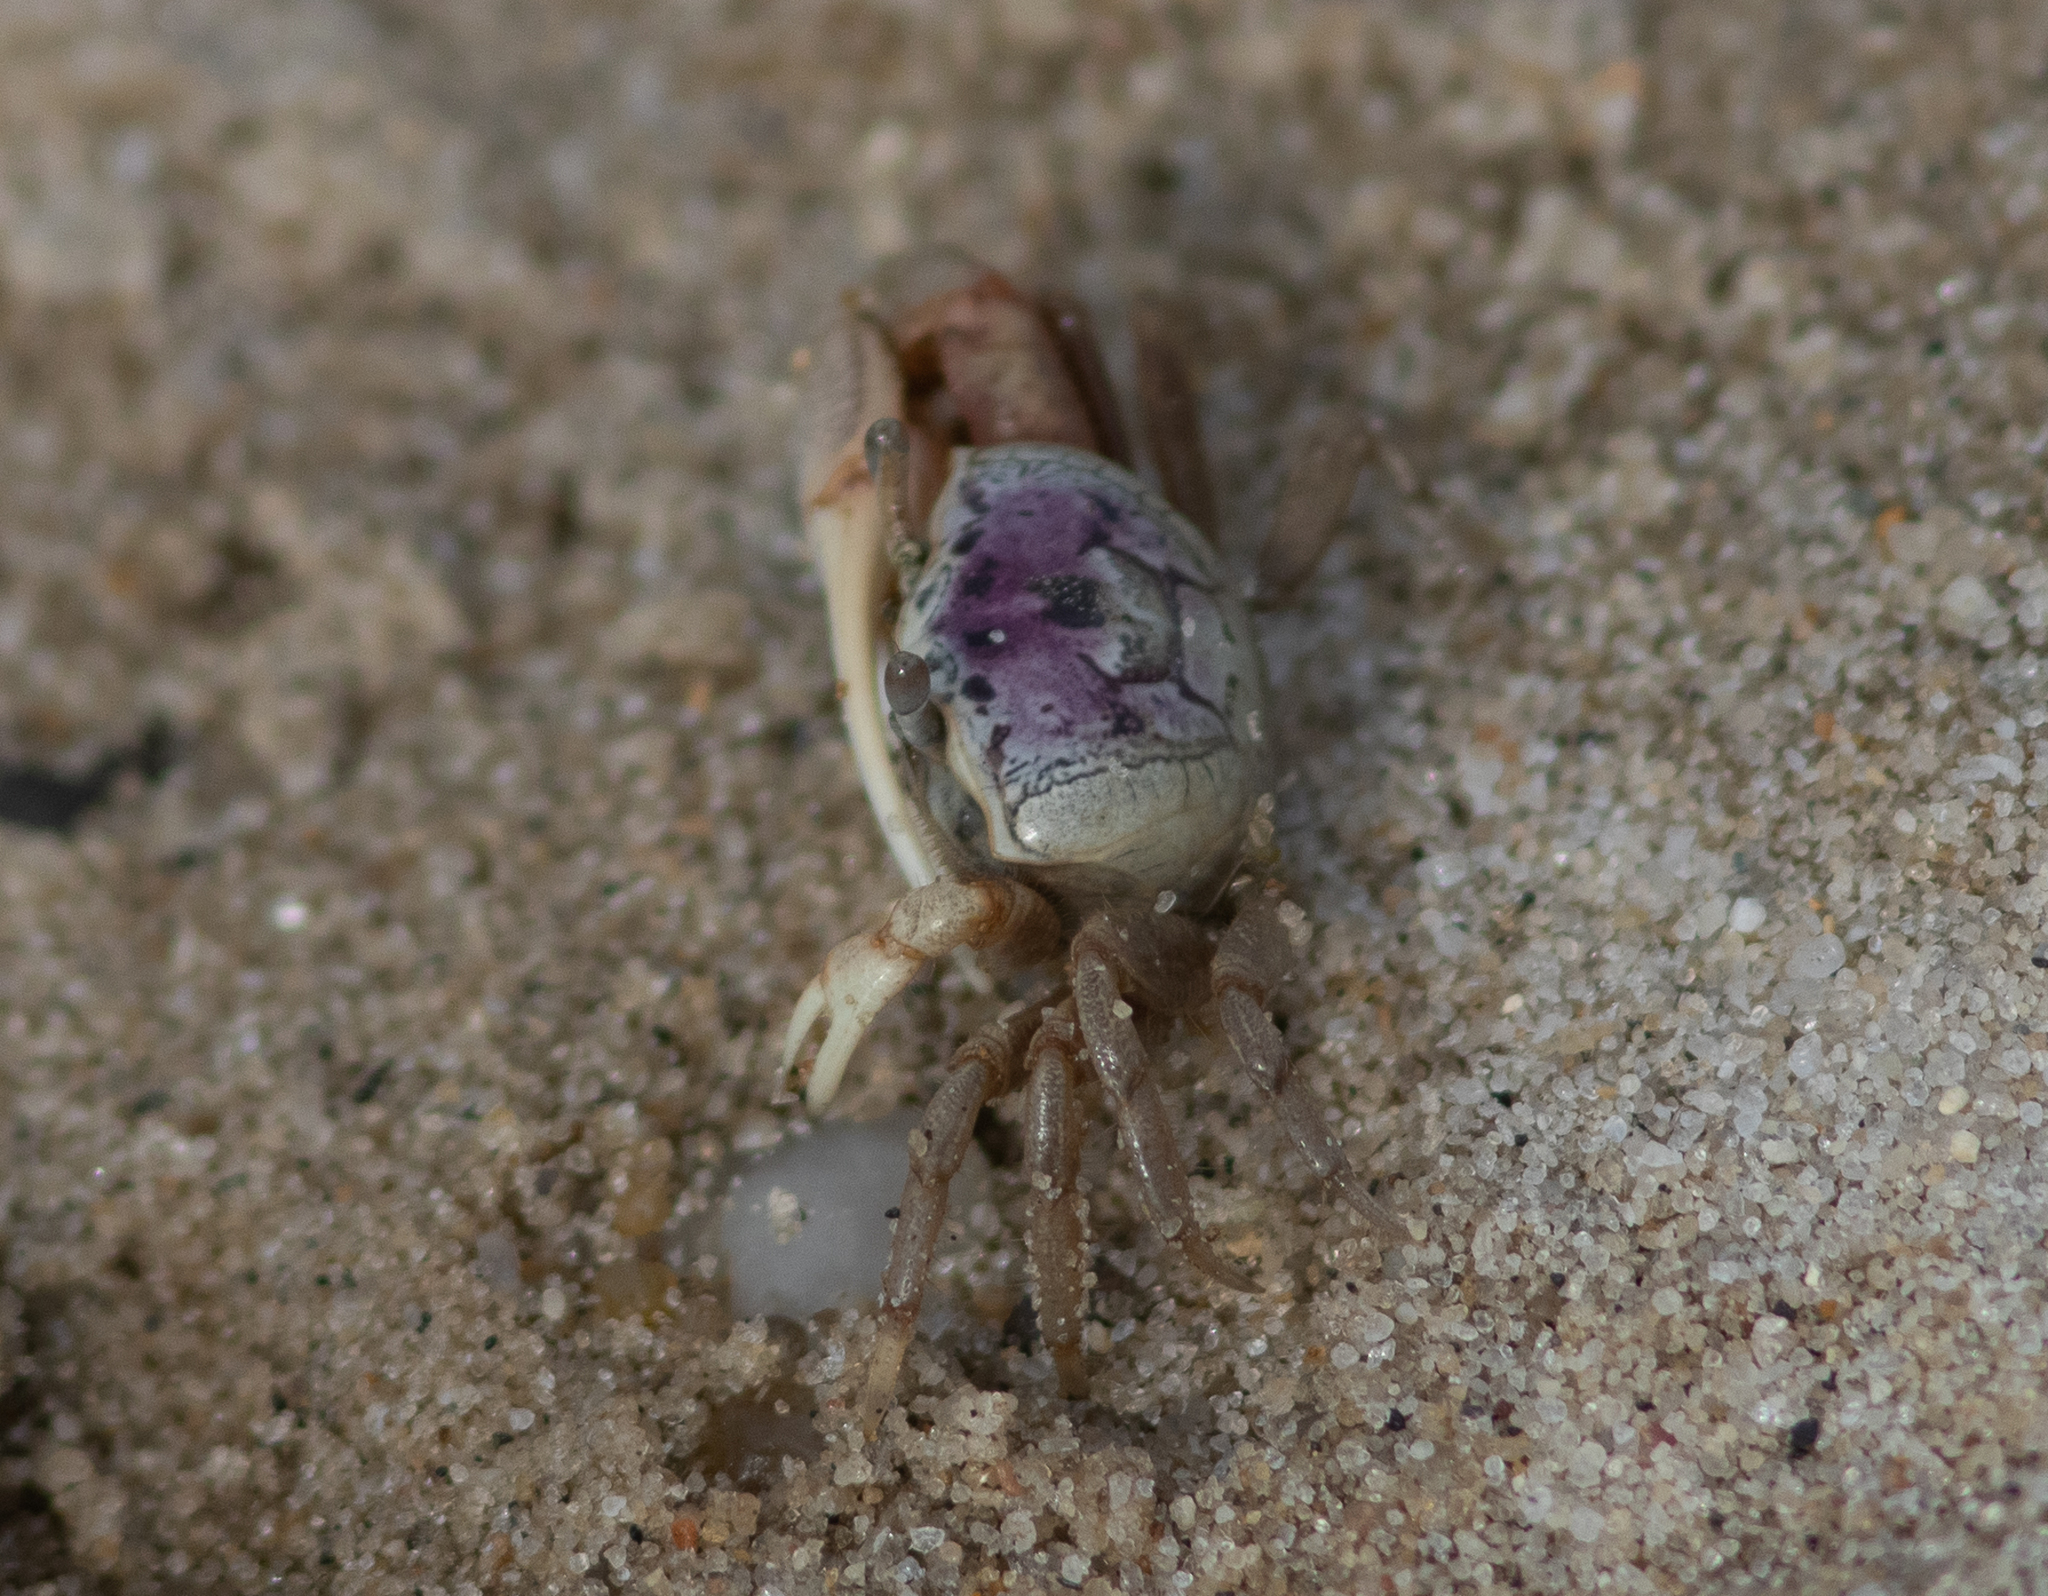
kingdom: Animalia
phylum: Arthropoda
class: Malacostraca
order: Decapoda
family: Ocypodidae
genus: Leptuca
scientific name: Leptuca pugilator
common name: Atlantic sand fiddler crab
